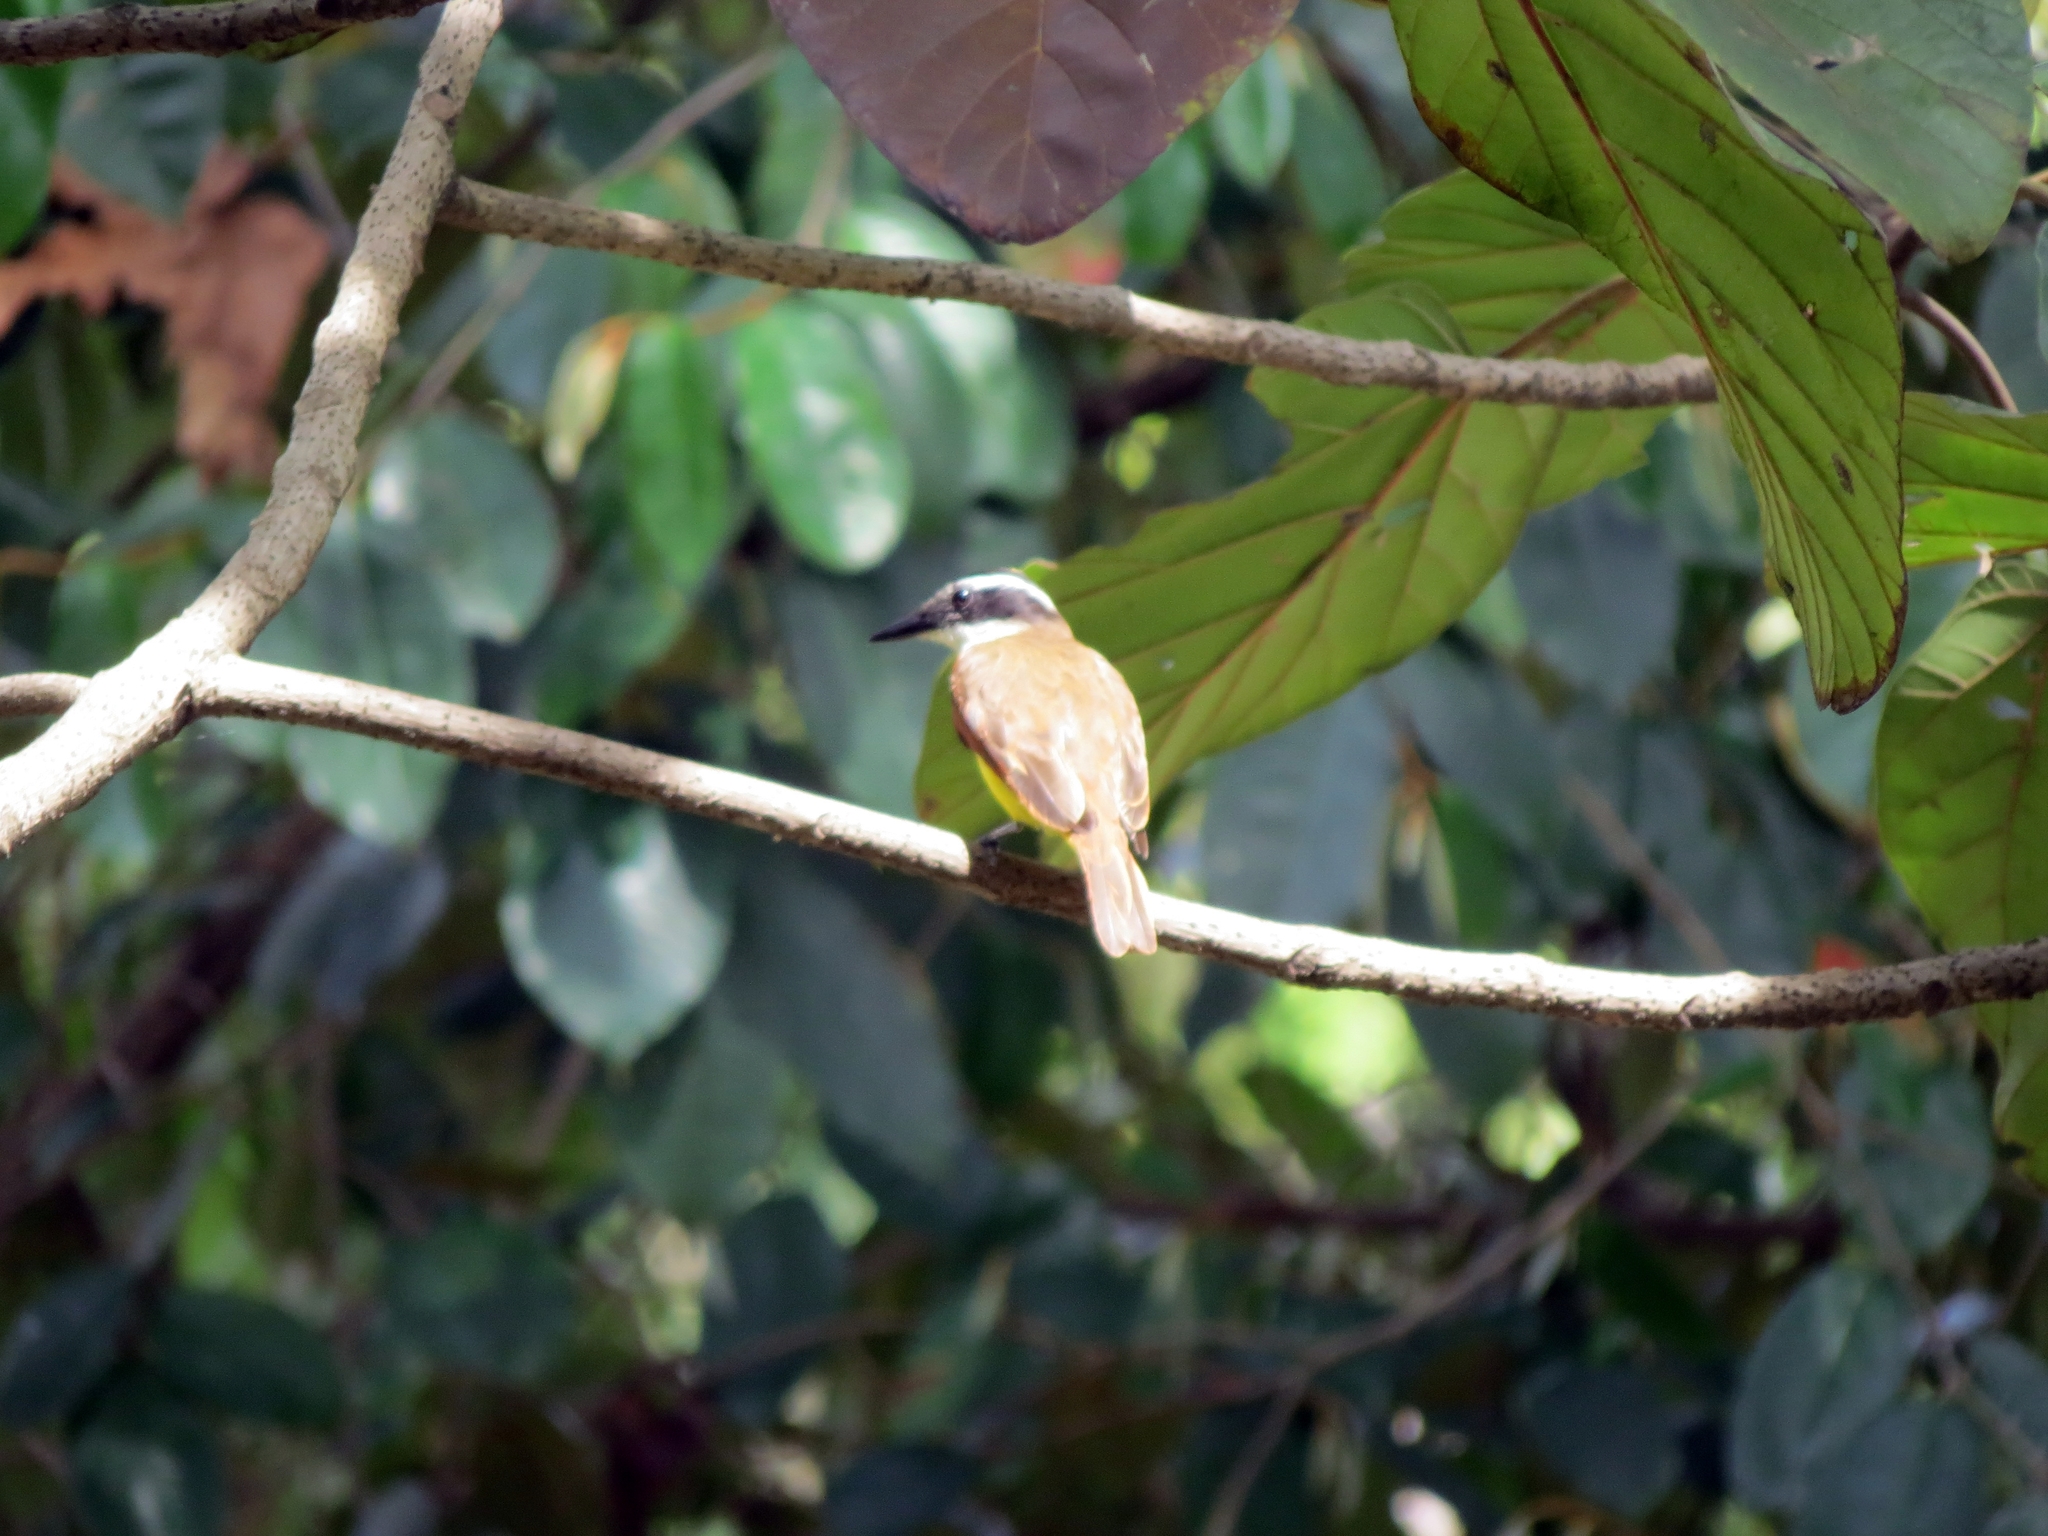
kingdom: Animalia
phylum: Chordata
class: Aves
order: Passeriformes
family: Tyrannidae
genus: Pitangus
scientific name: Pitangus sulphuratus
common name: Great kiskadee
